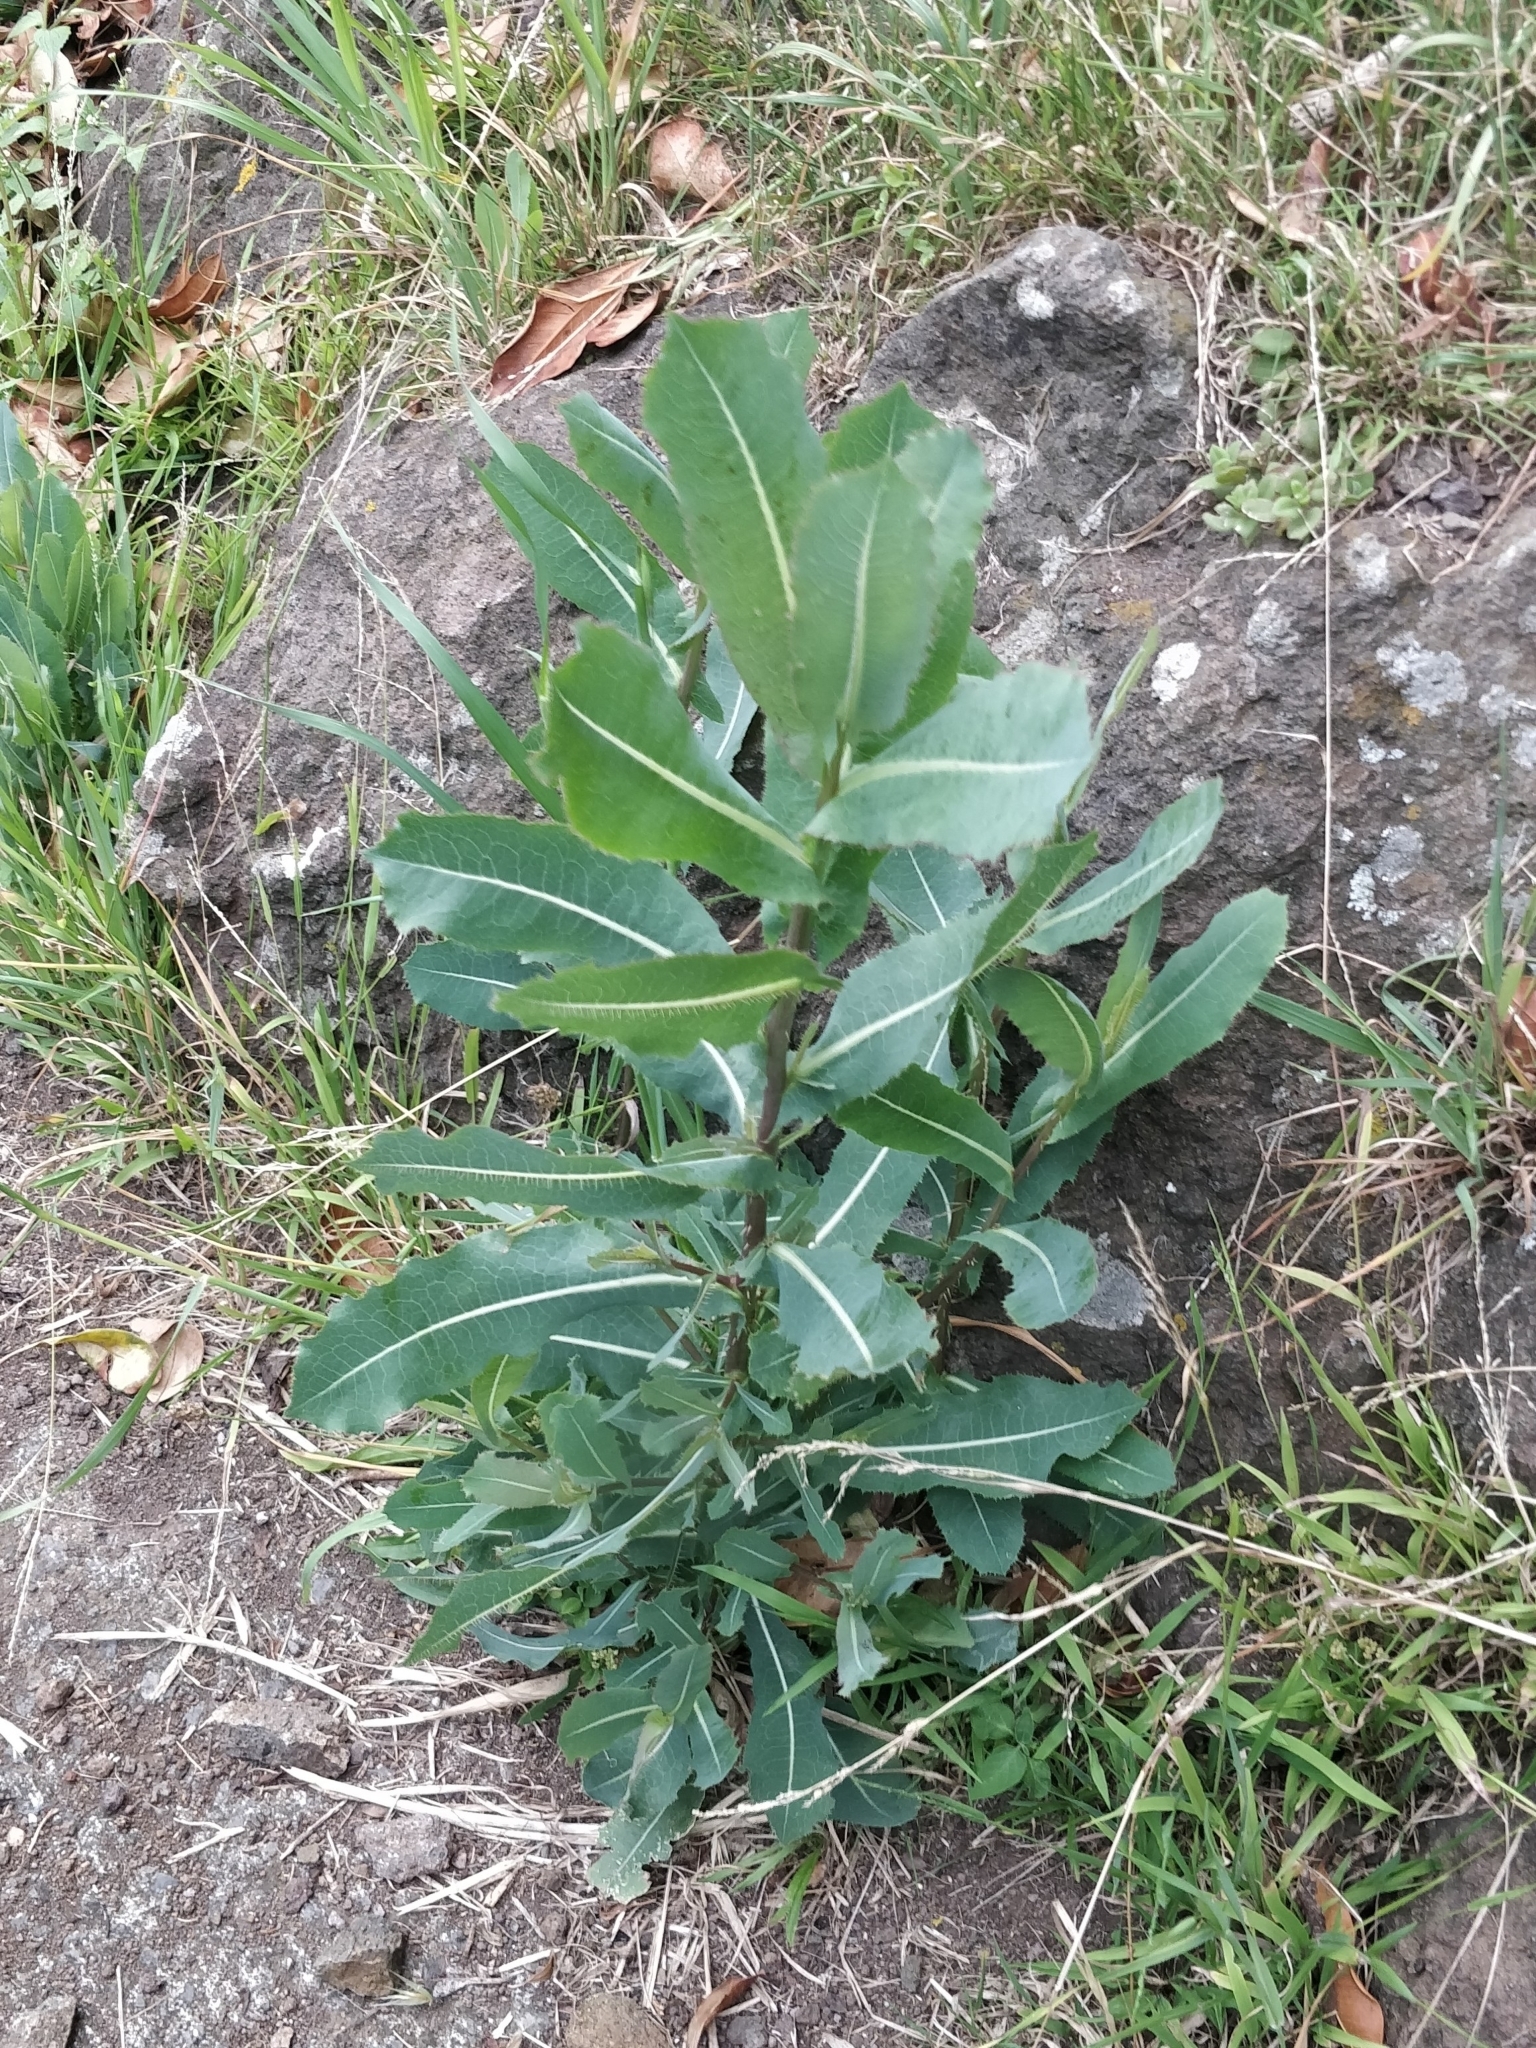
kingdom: Plantae
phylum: Tracheophyta
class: Magnoliopsida
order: Asterales
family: Asteraceae
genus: Lactuca
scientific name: Lactuca serriola
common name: Prickly lettuce
